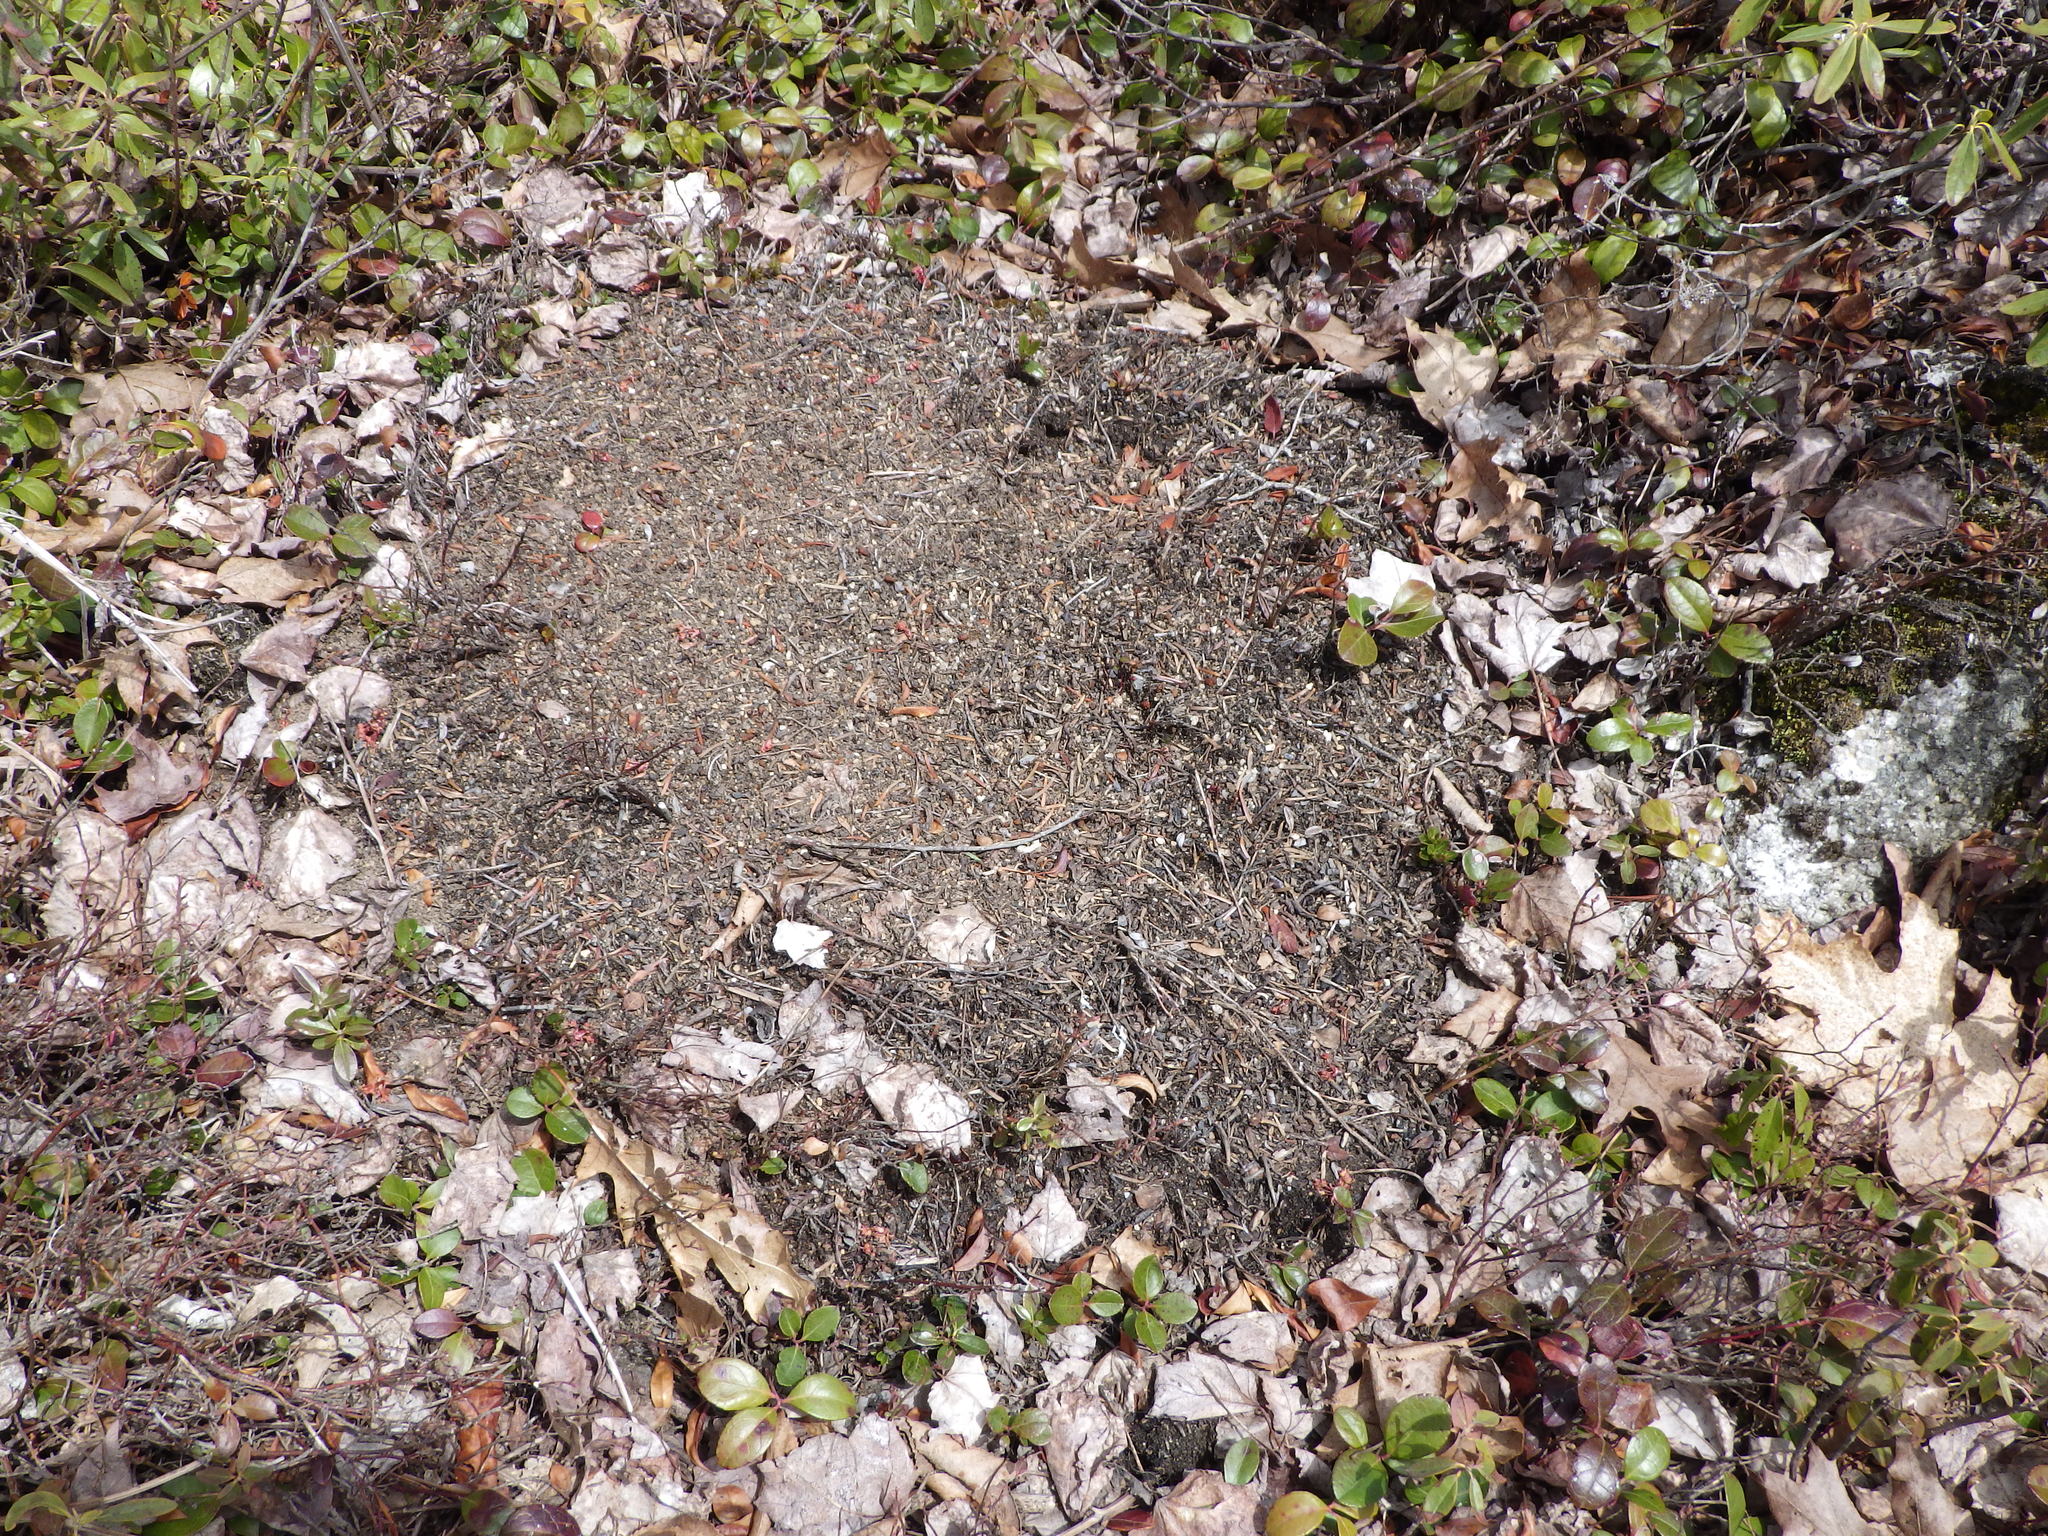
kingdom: Animalia
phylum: Arthropoda
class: Insecta
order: Hymenoptera
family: Formicidae
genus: Formica
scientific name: Formica ulkei
